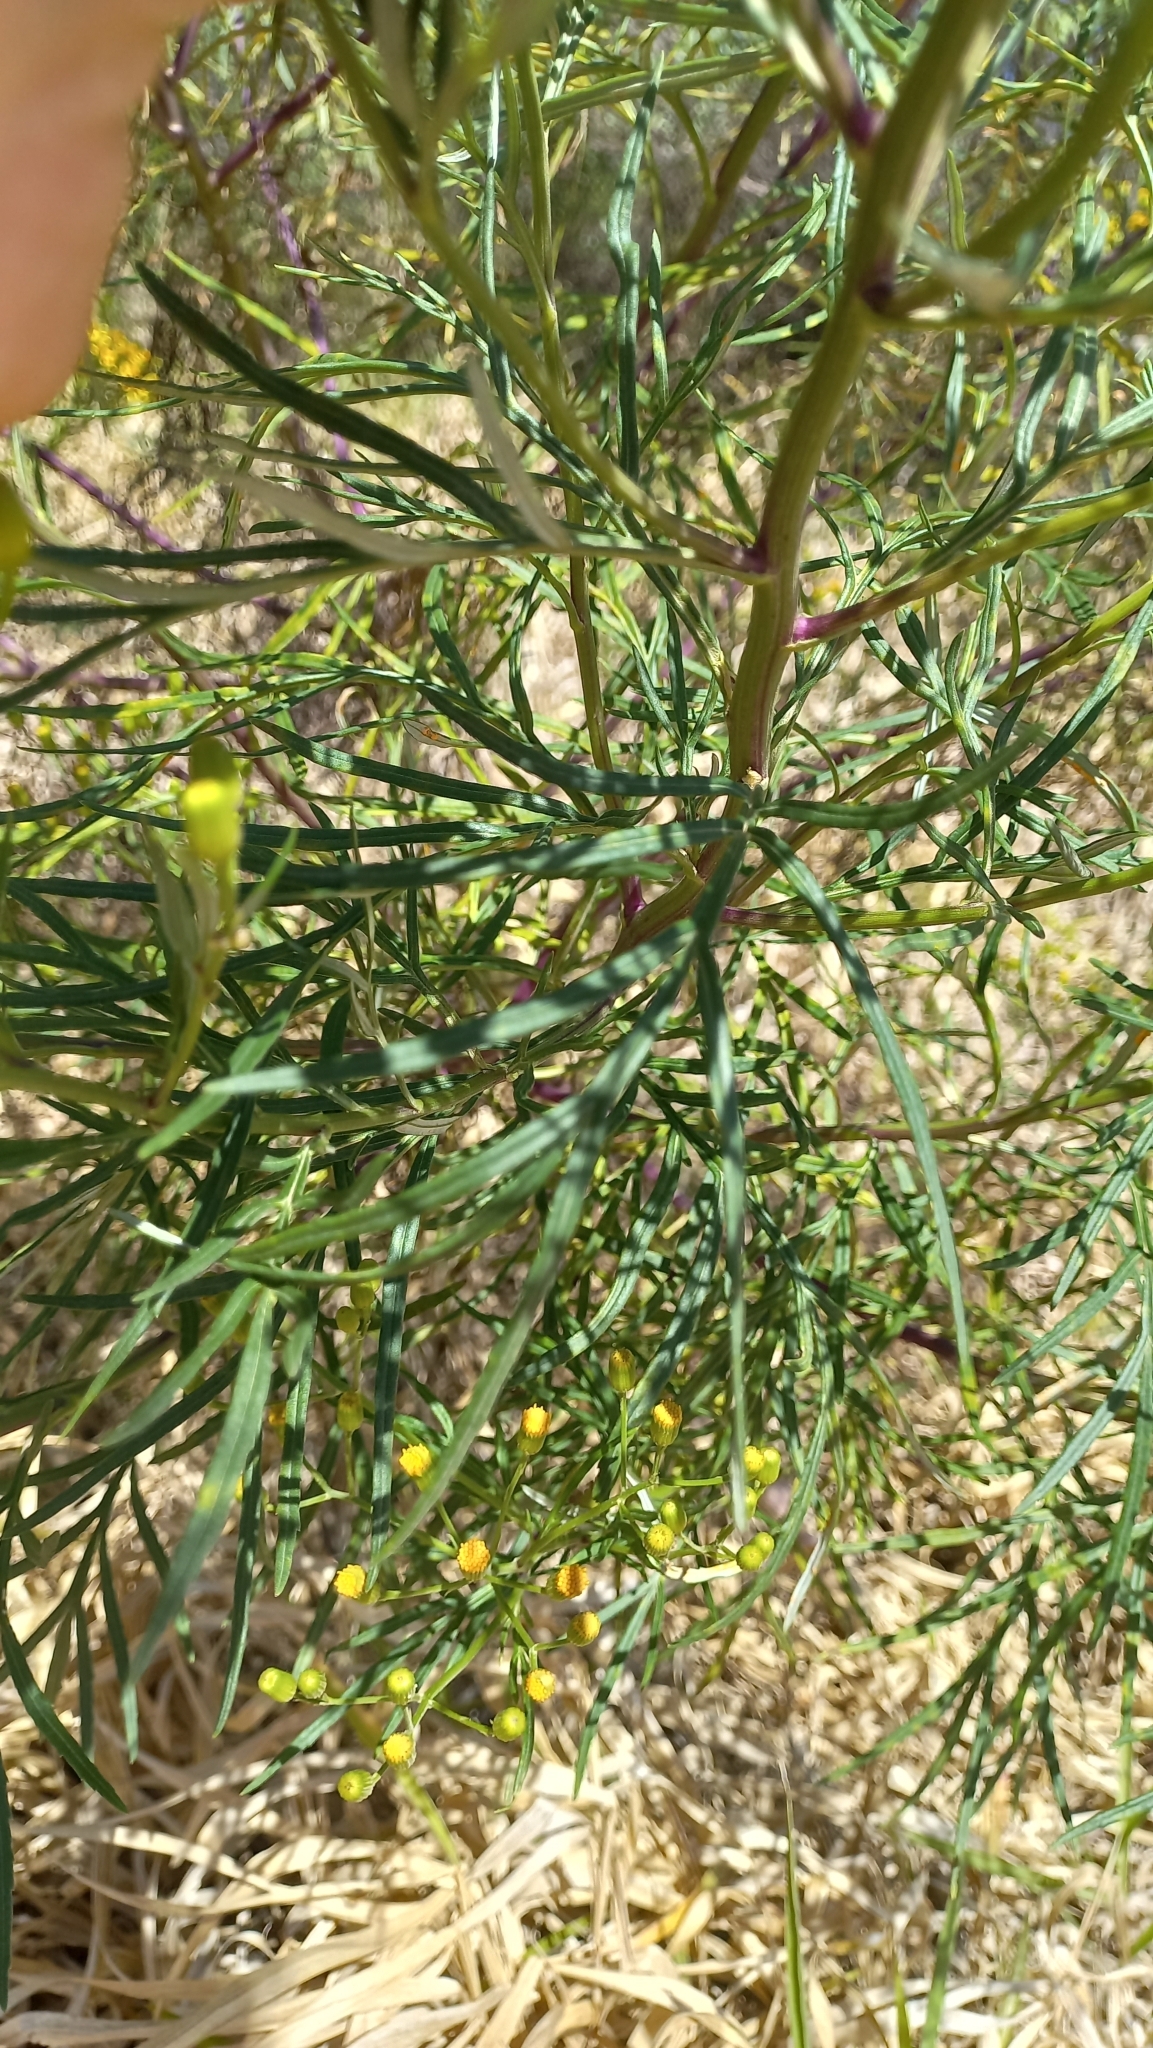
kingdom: Plantae
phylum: Tracheophyta
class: Magnoliopsida
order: Asterales
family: Asteraceae
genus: Senecio
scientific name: Senecio brasiliensis
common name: Hemp-leaf ragwort
